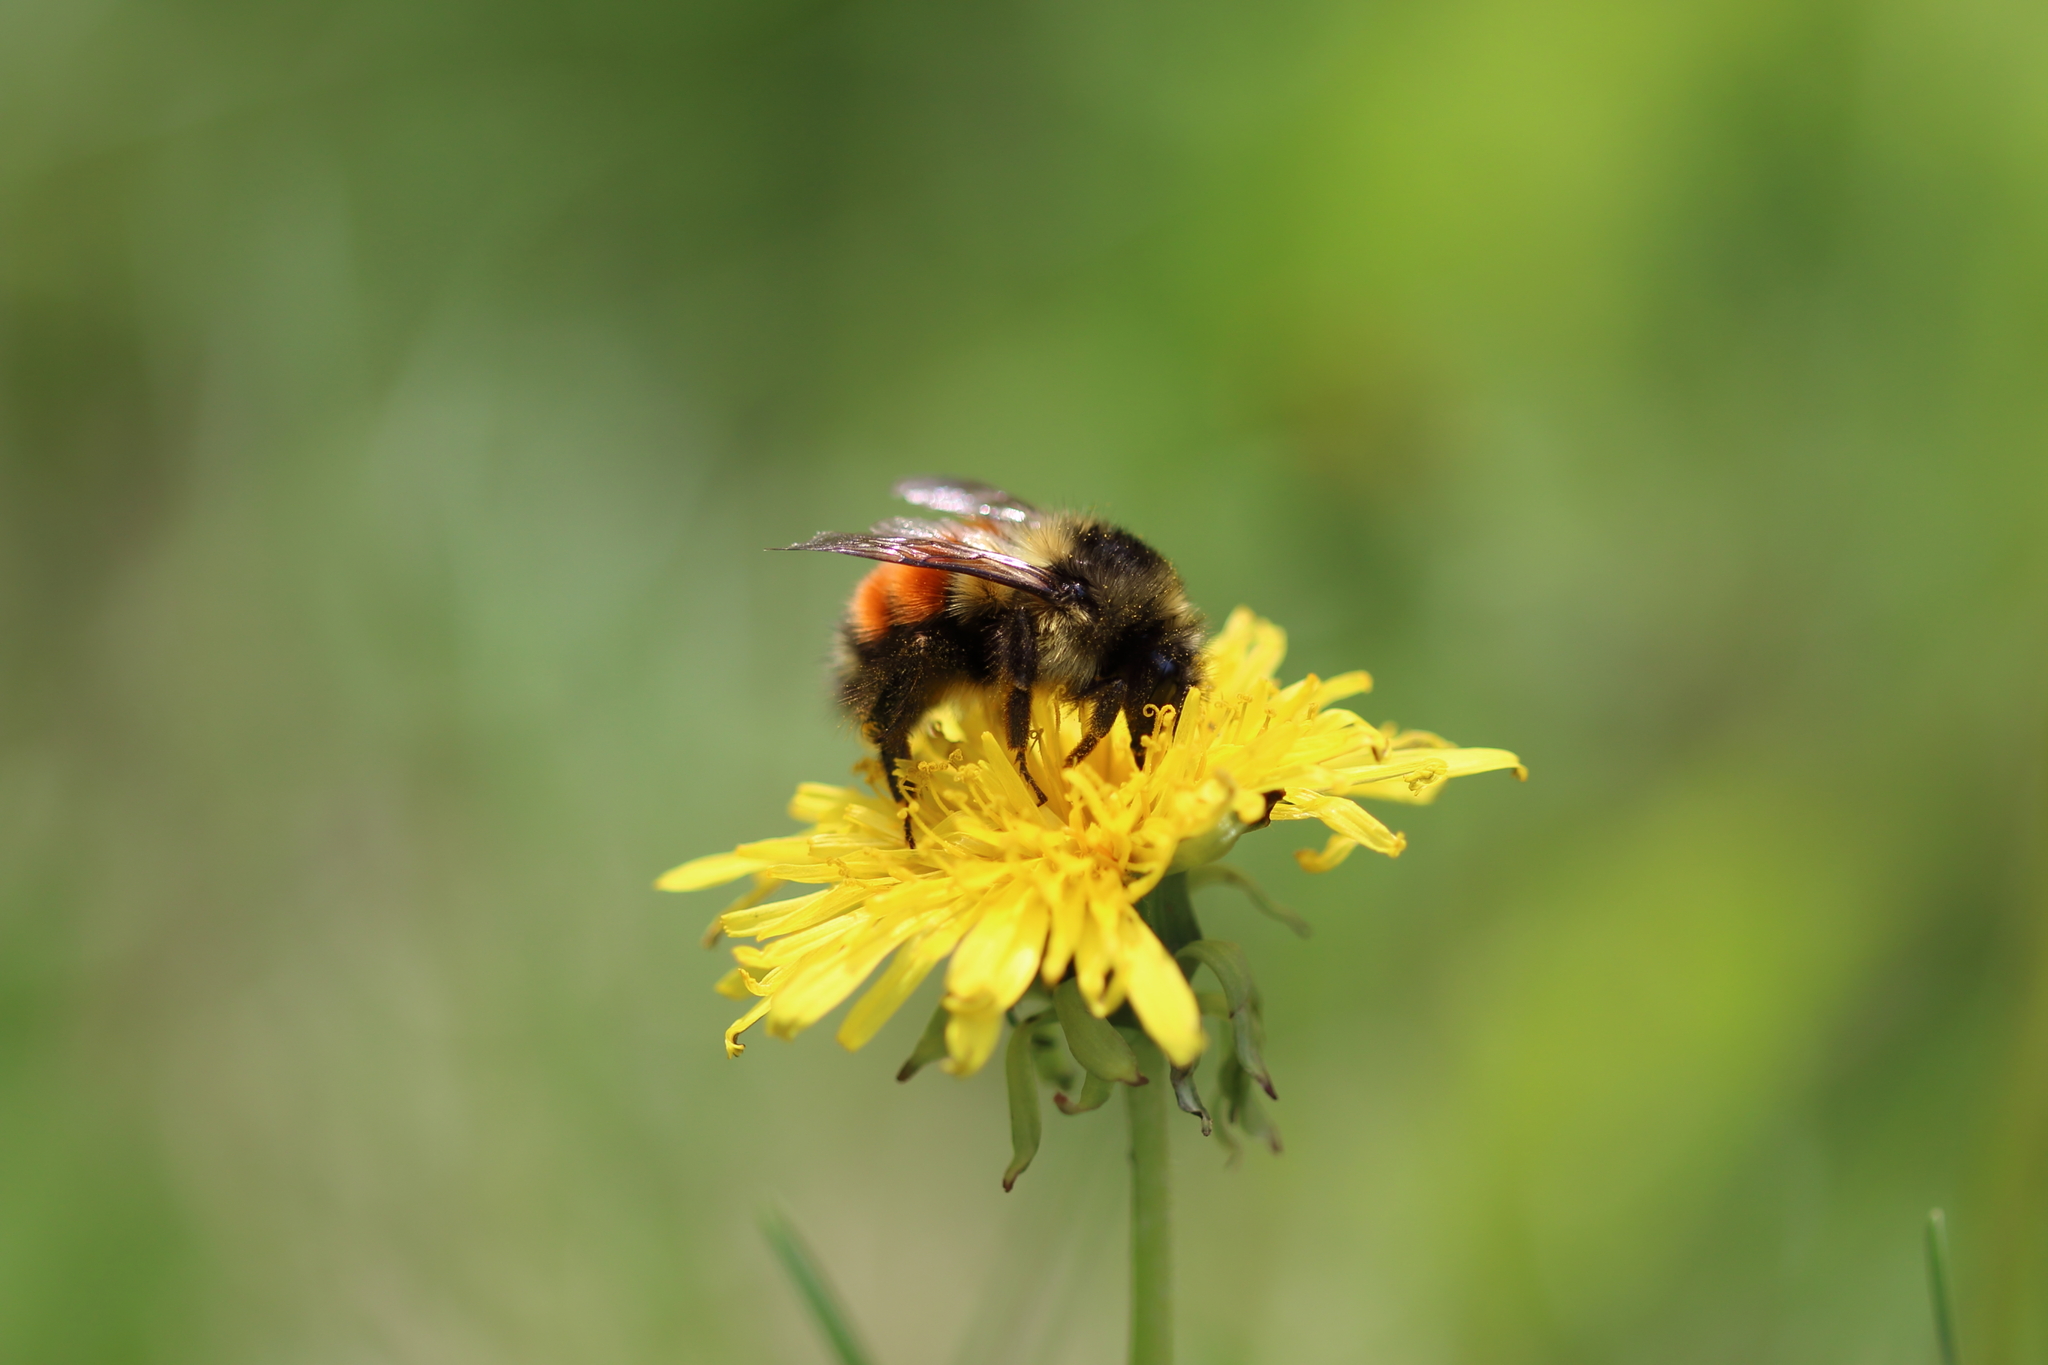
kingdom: Animalia
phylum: Arthropoda
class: Insecta
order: Hymenoptera
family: Apidae
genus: Bombus
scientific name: Bombus melanopygus
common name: Black tail bumble bee
